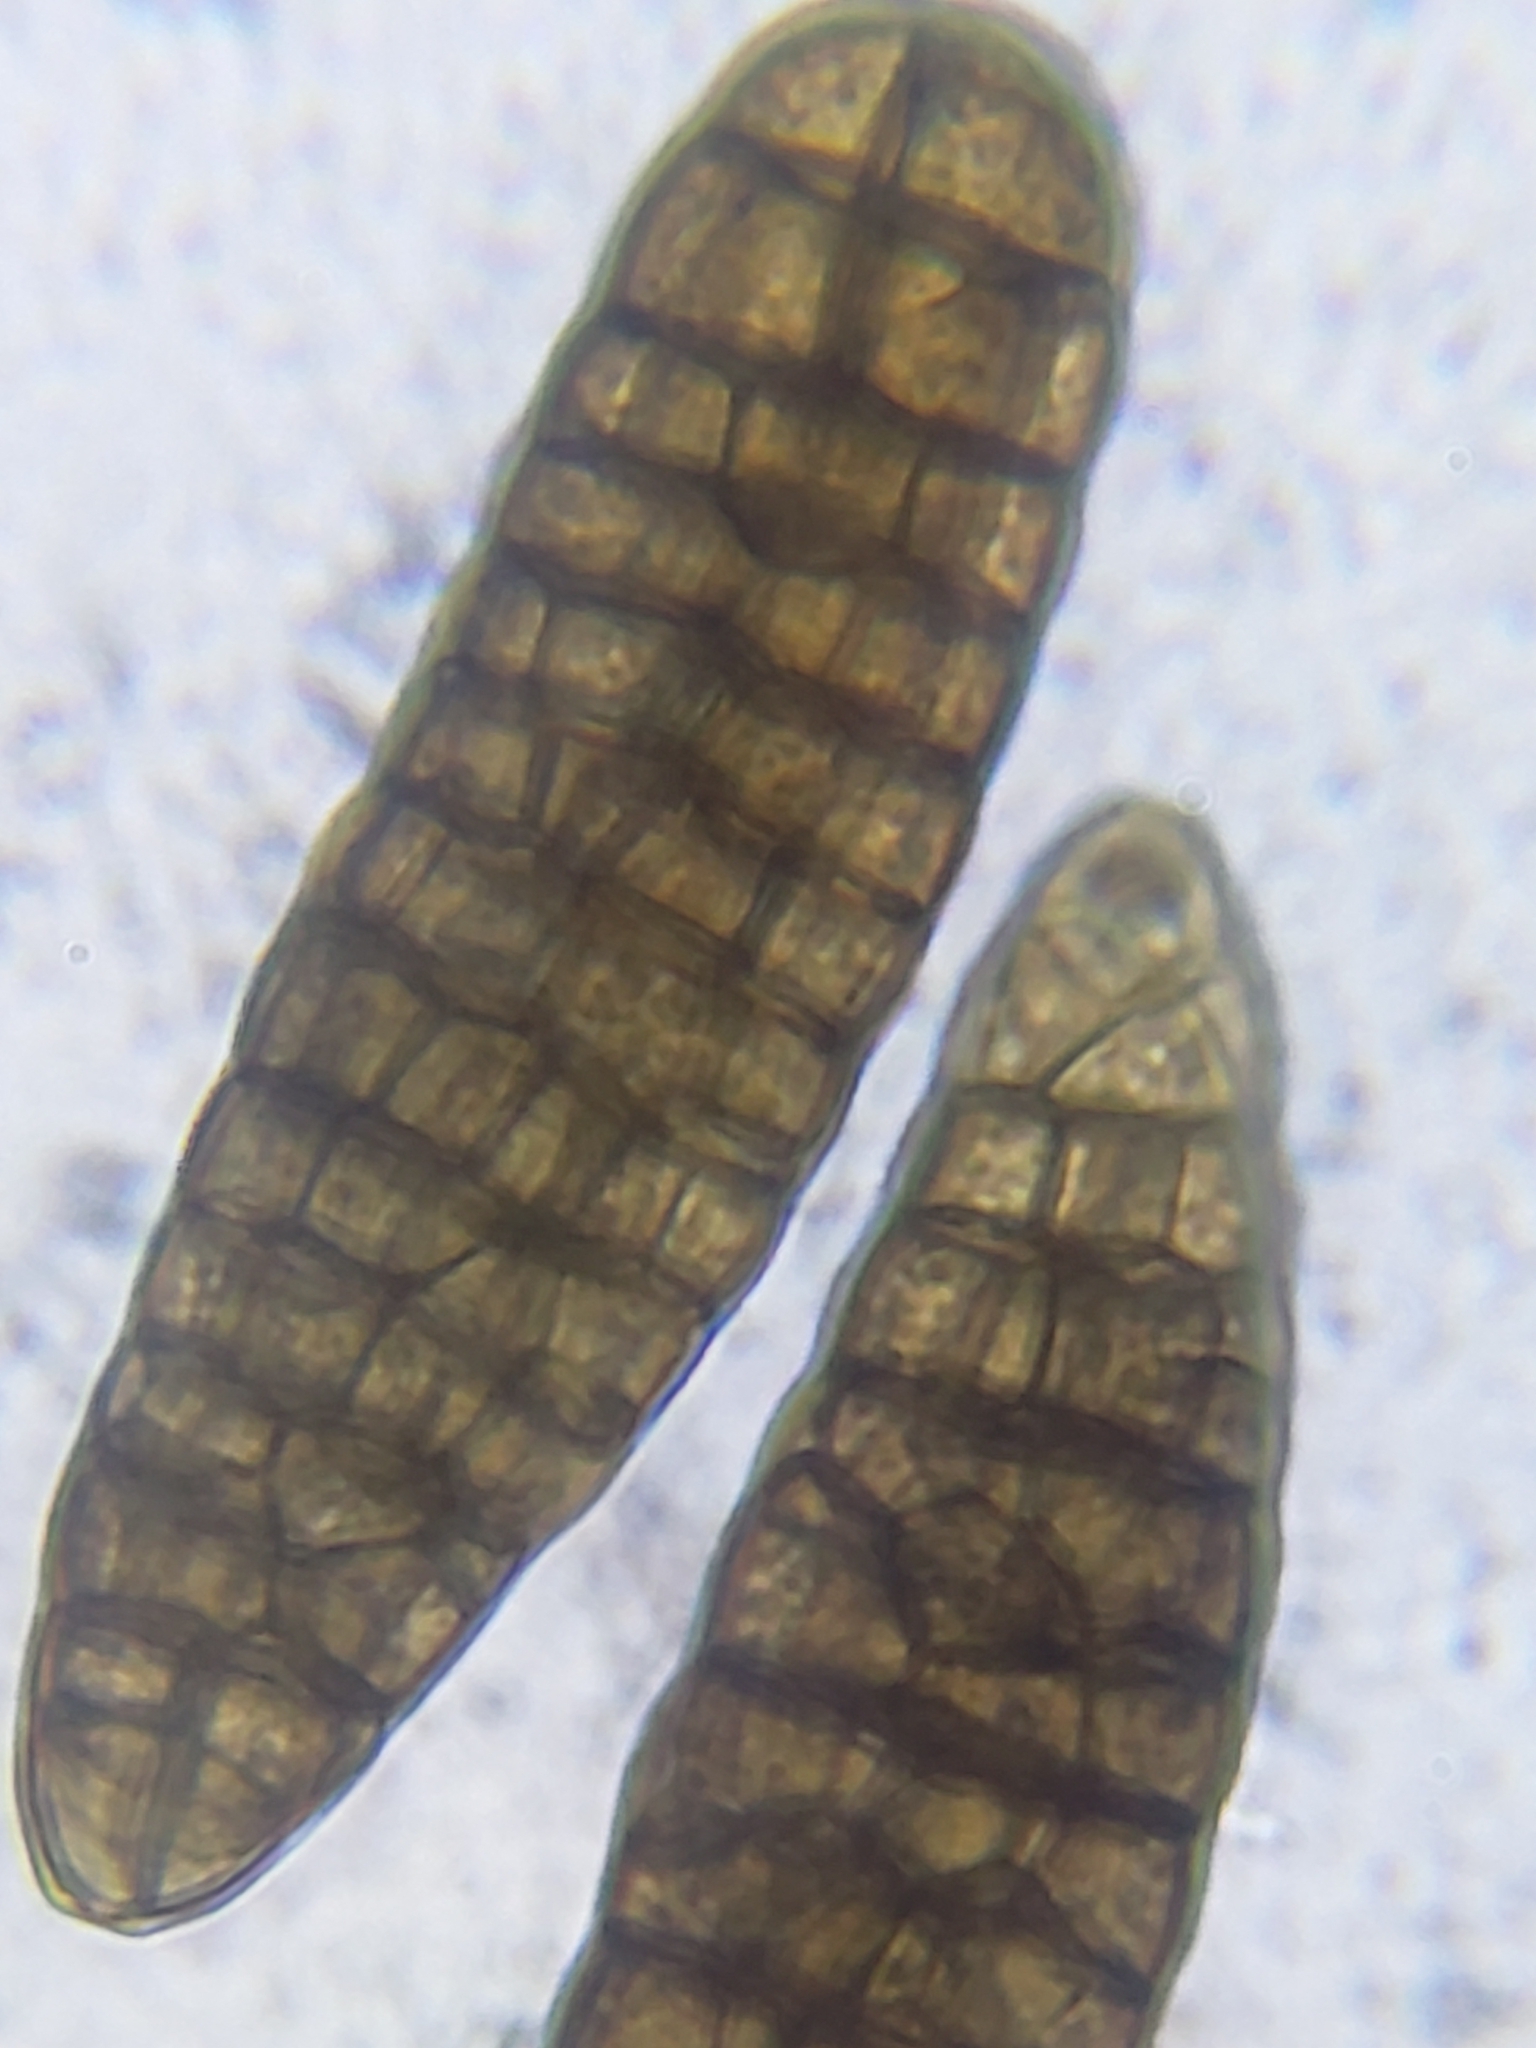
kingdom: Fungi
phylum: Ascomycota
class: Dothideomycetes
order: Pleosporales
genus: Berkleasmium
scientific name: Berkleasmium concinnum
